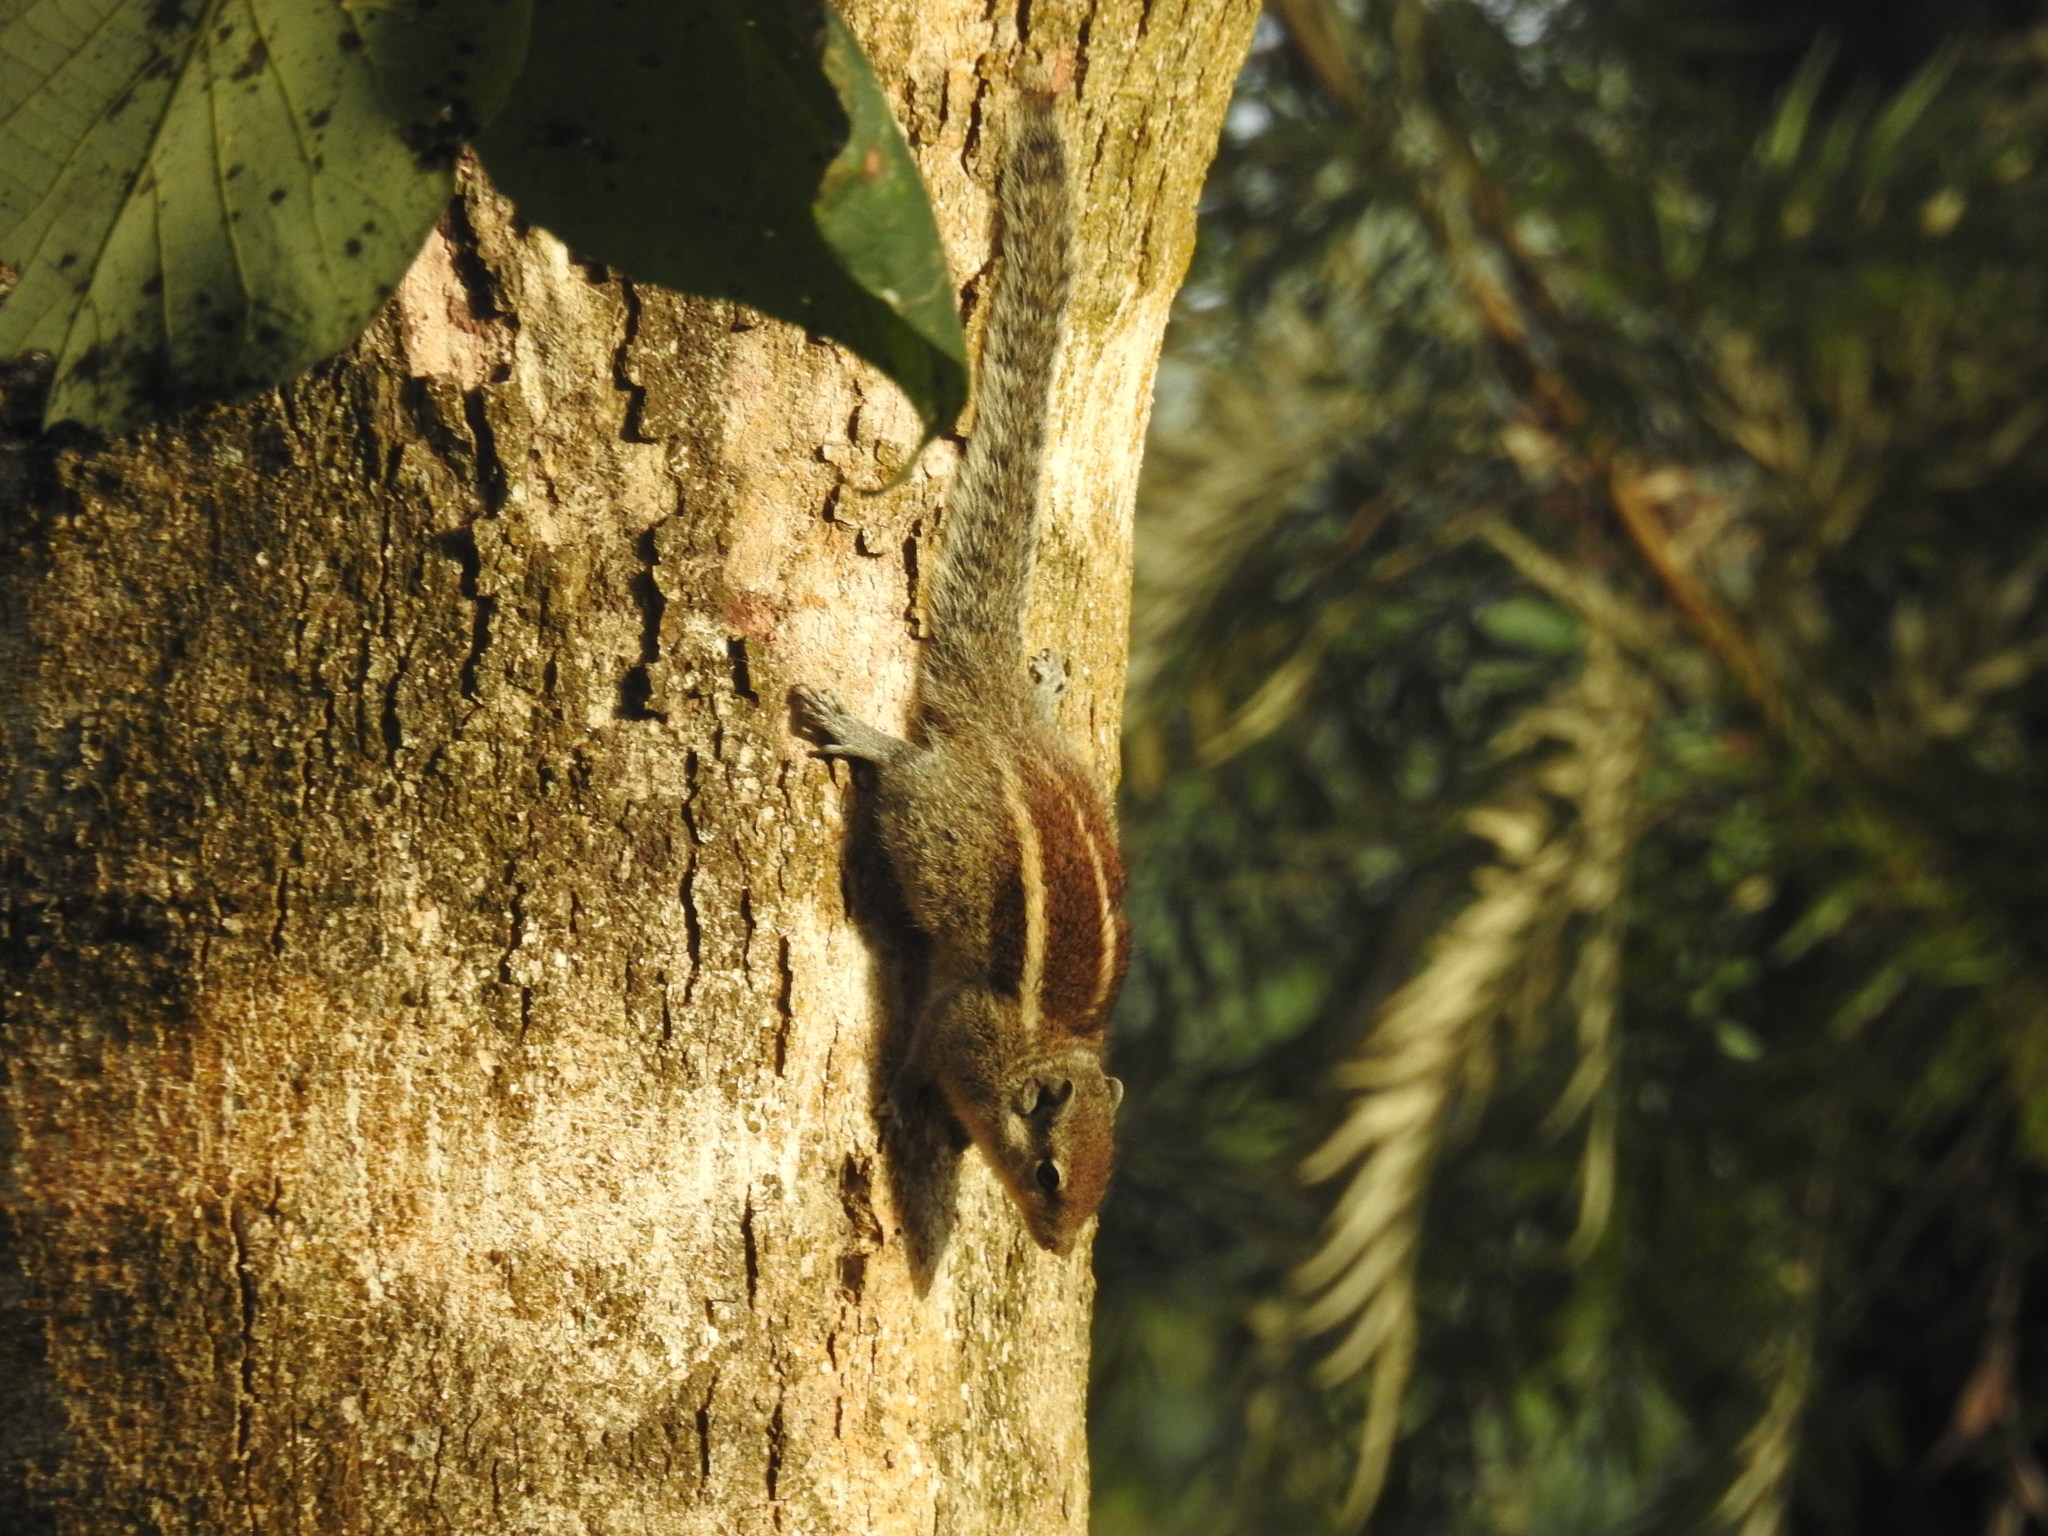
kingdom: Animalia
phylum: Chordata
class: Mammalia
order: Rodentia
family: Sciuridae
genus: Funambulus
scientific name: Funambulus palmarum
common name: Indian palm squirrel
